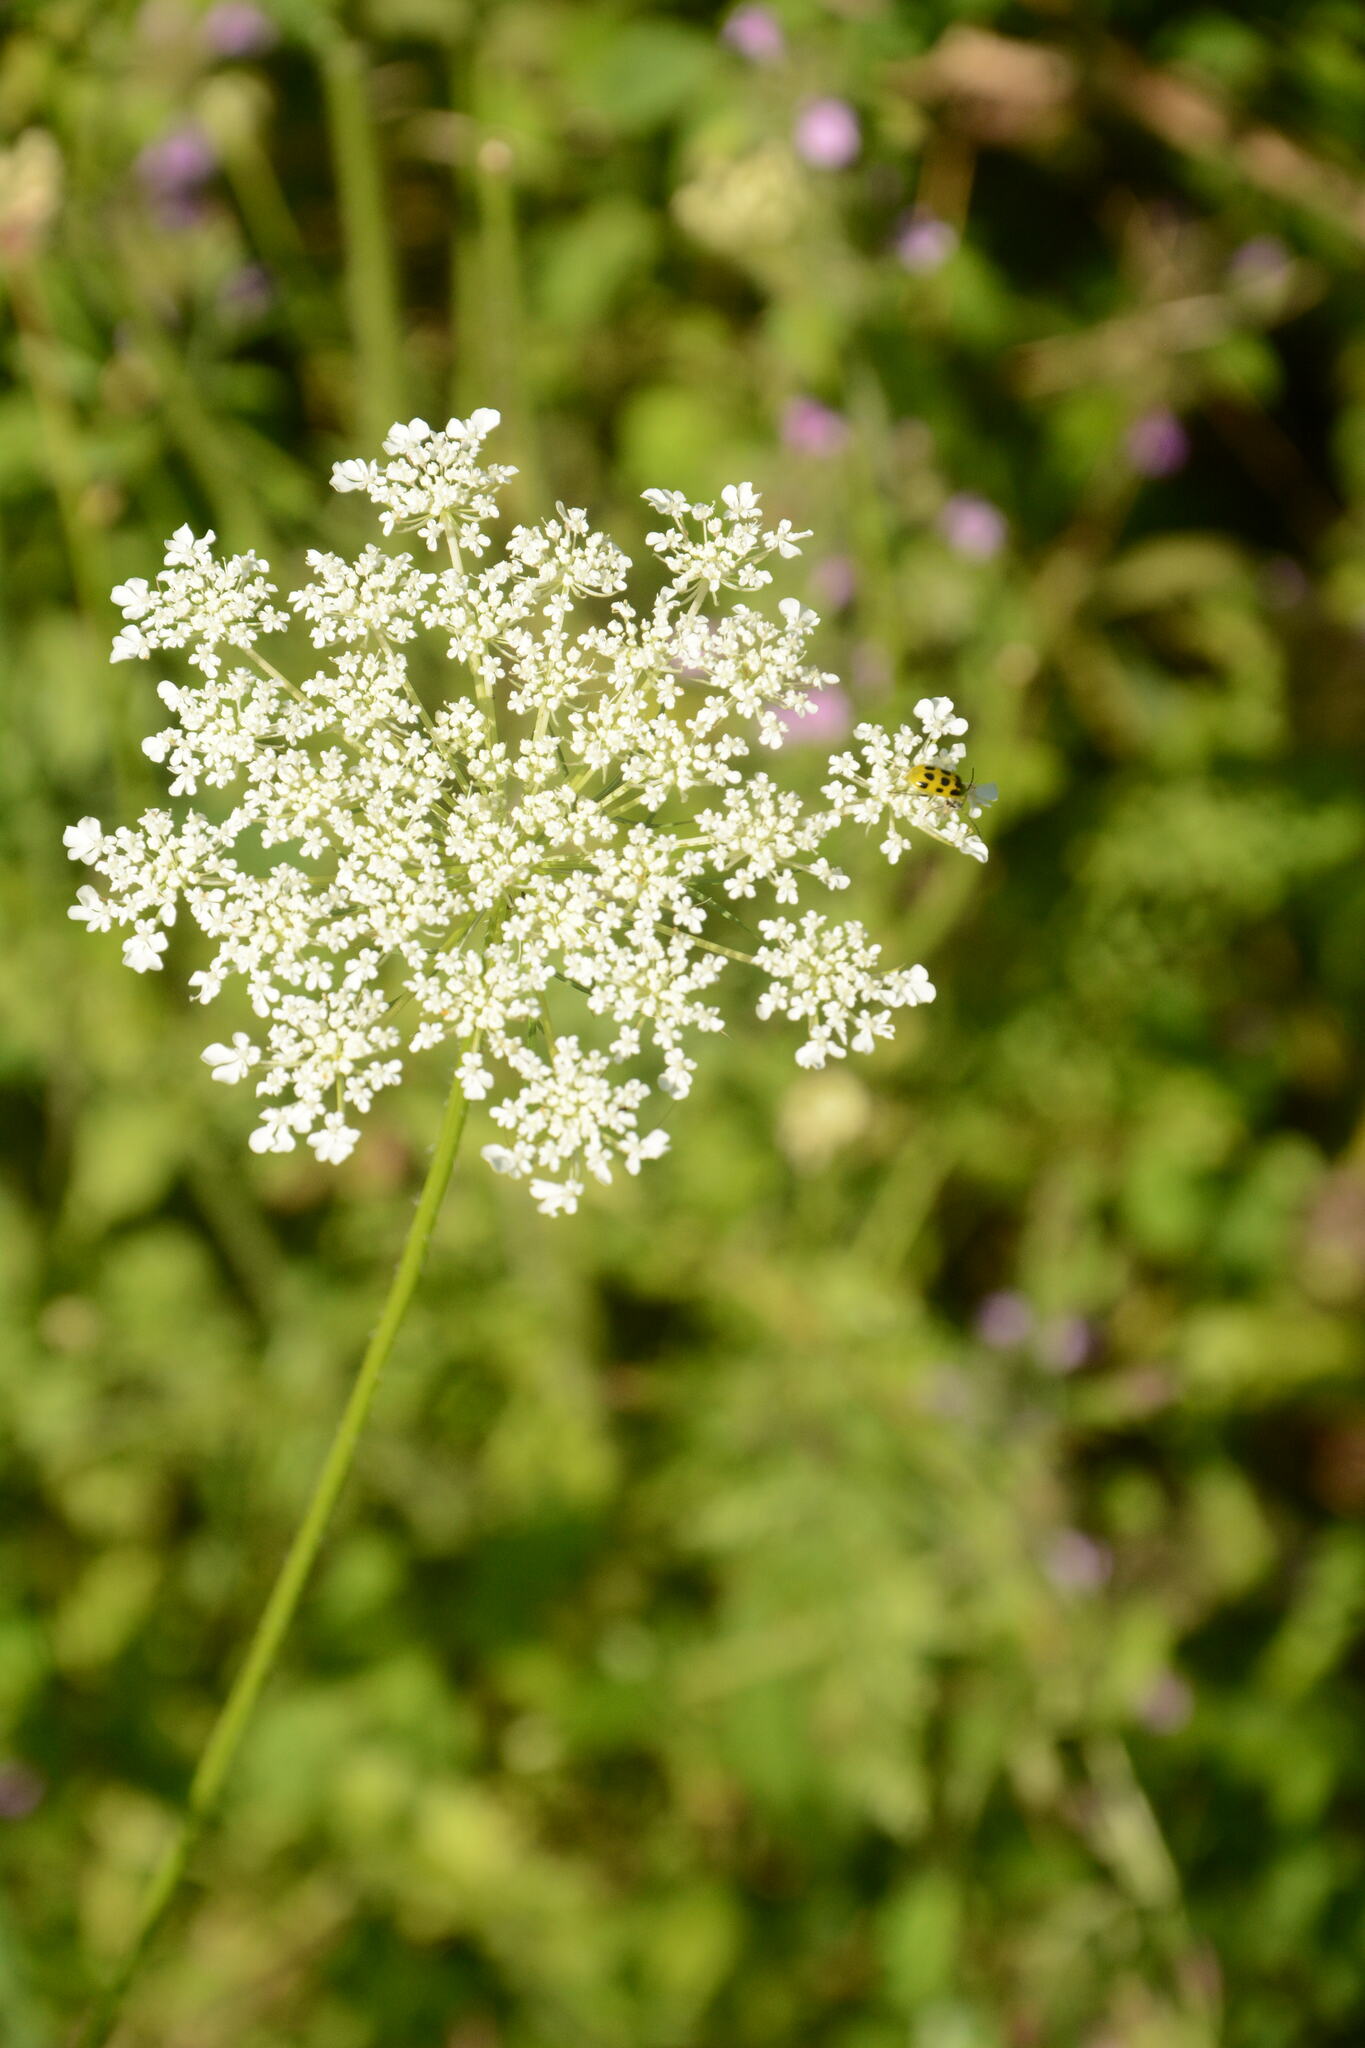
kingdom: Plantae
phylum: Tracheophyta
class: Magnoliopsida
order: Apiales
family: Apiaceae
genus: Daucus
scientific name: Daucus carota
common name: Wild carrot
